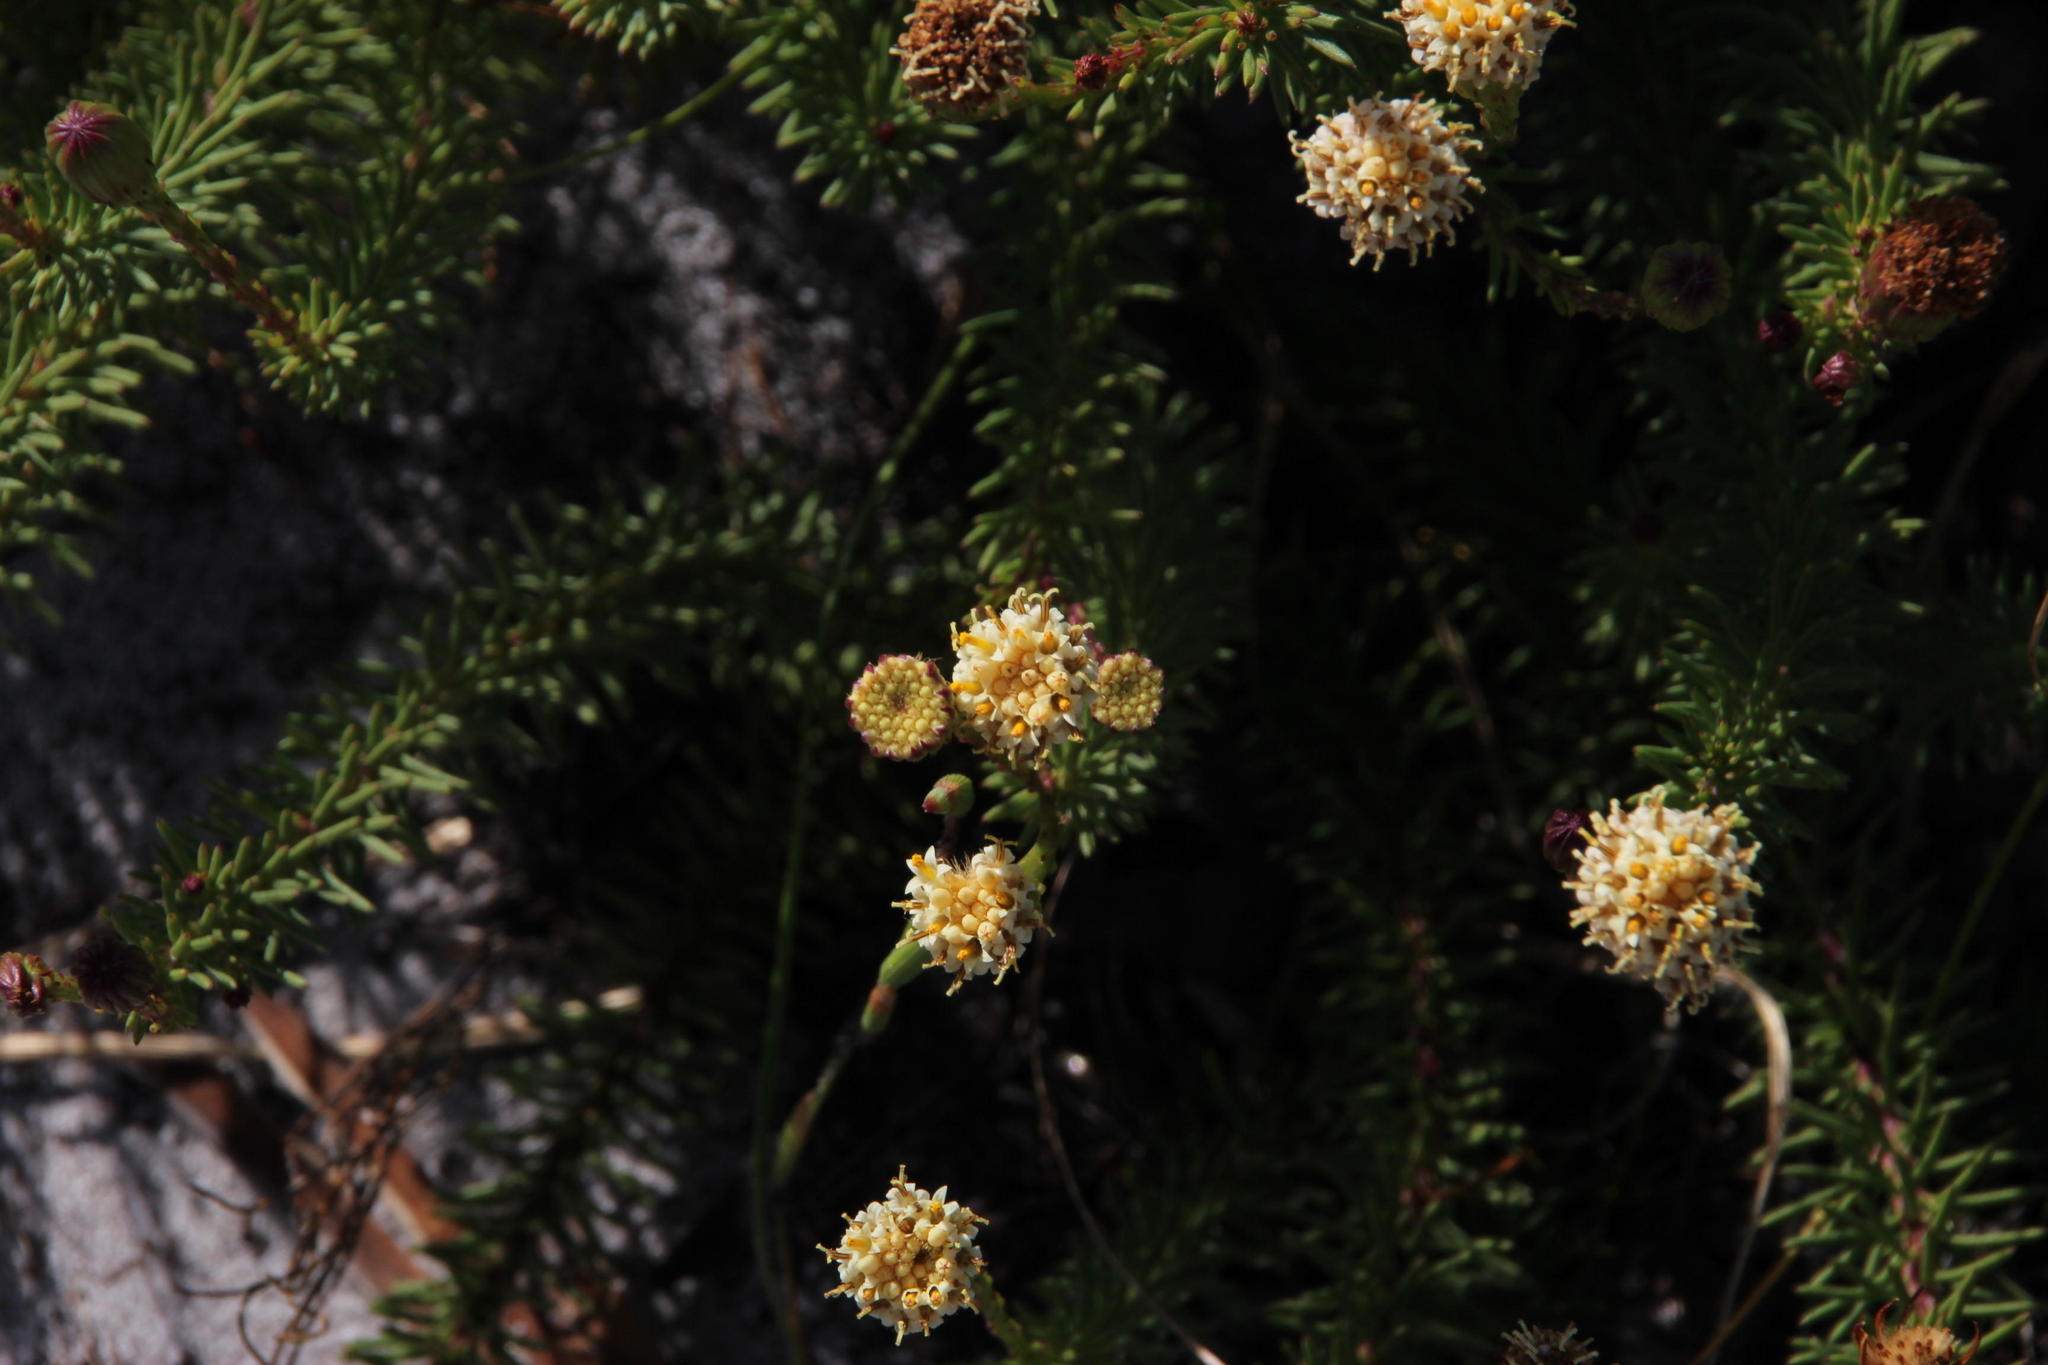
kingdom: Plantae
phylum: Tracheophyta
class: Magnoliopsida
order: Asterales
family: Asteraceae
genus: Senecio
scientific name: Senecio triqueter
